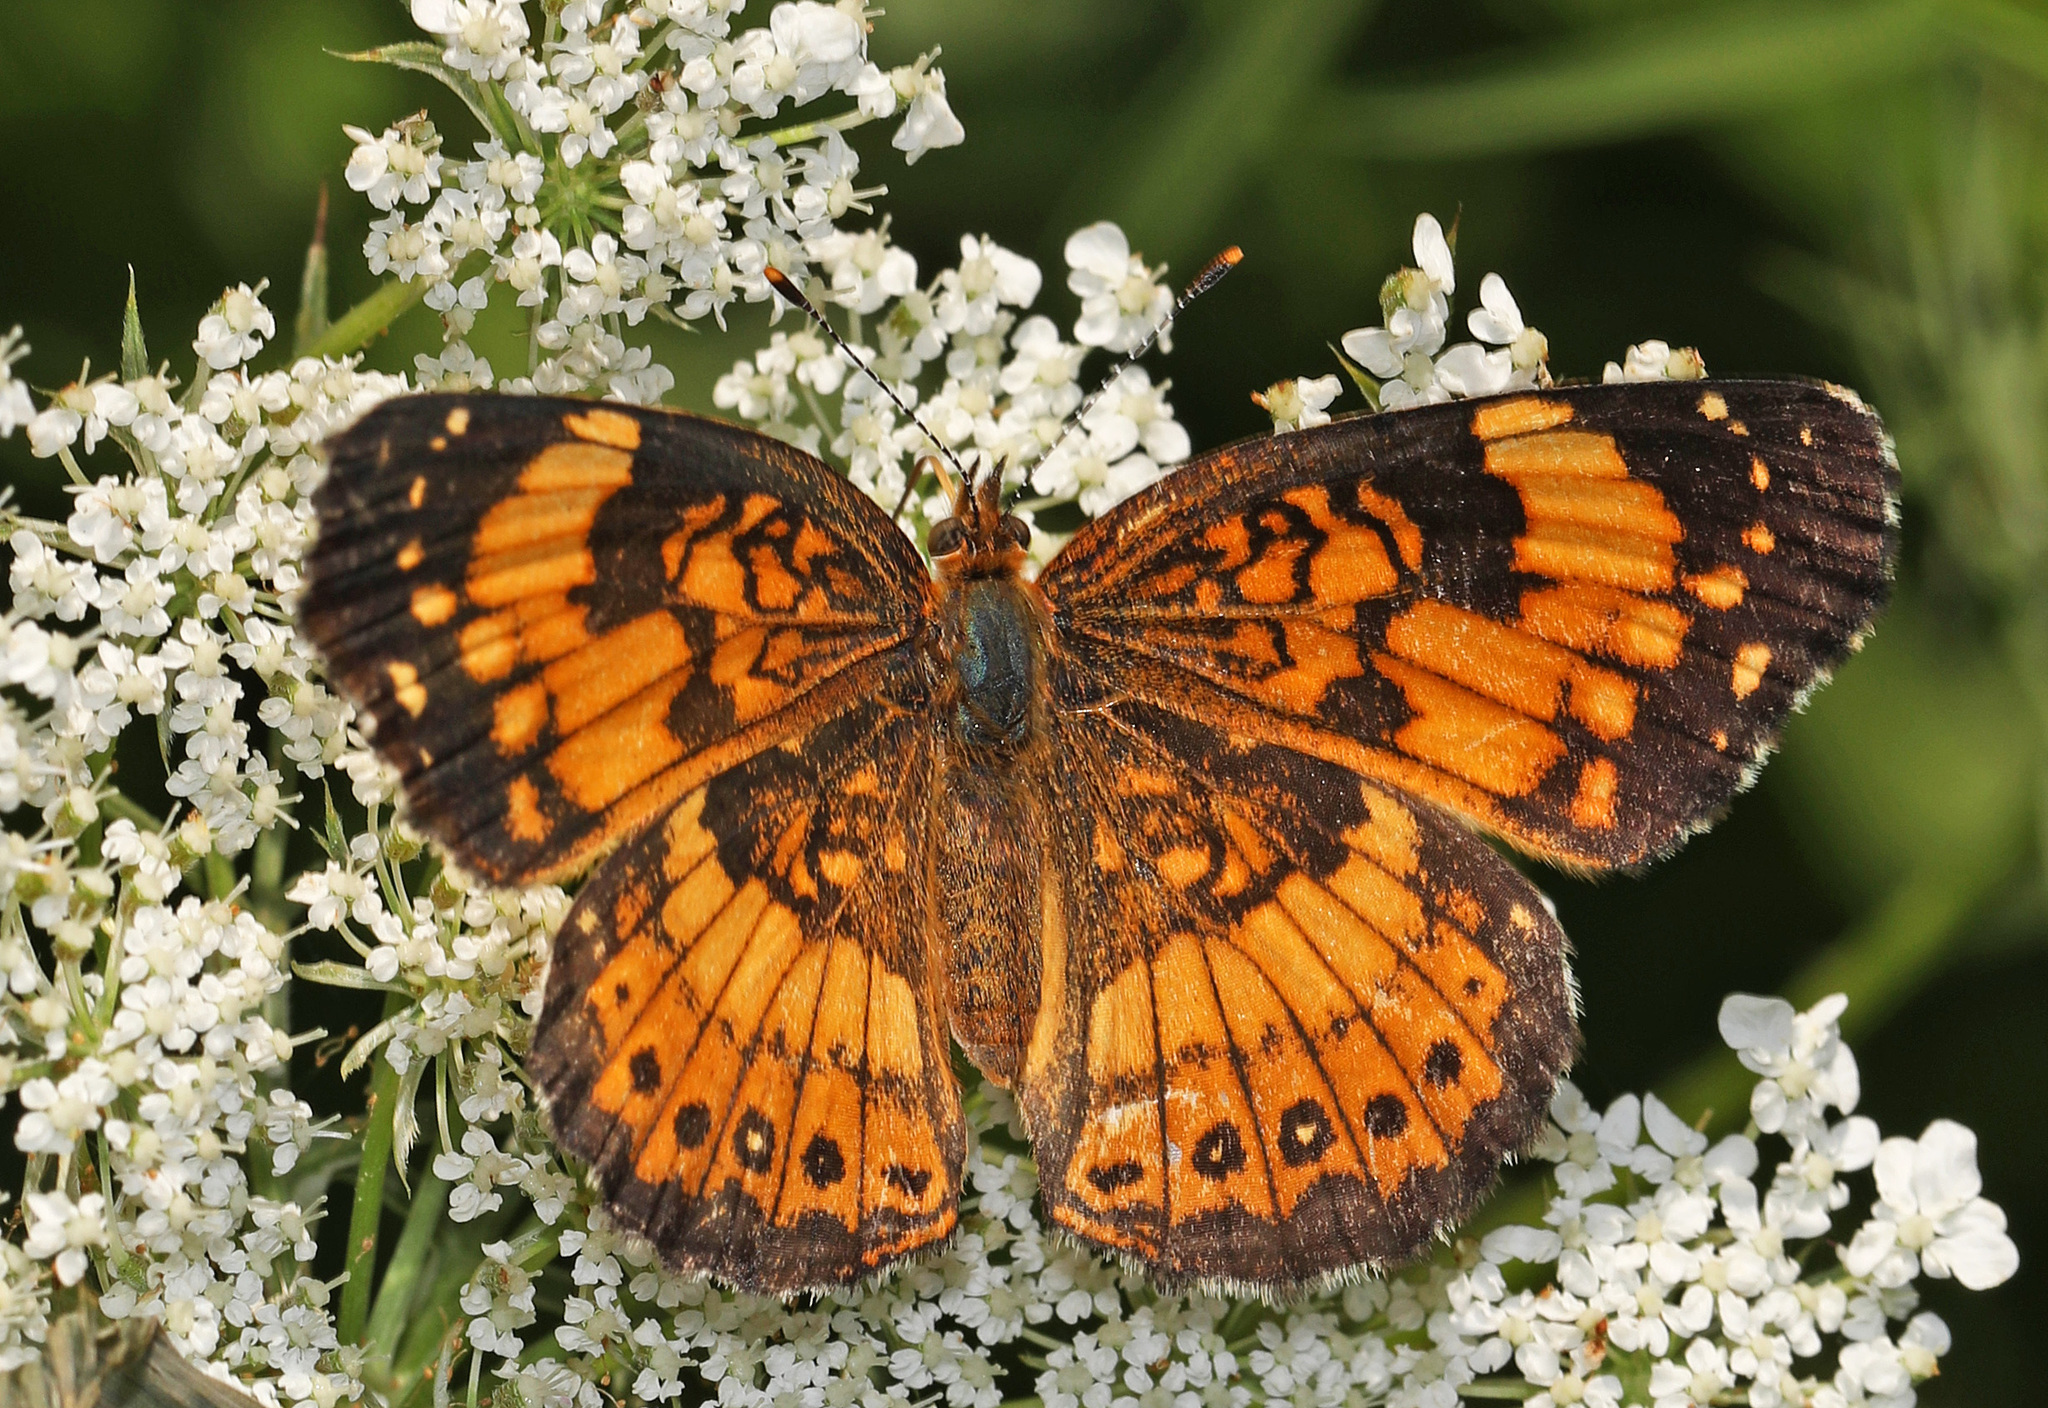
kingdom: Animalia
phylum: Arthropoda
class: Insecta
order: Lepidoptera
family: Nymphalidae
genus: Chlosyne
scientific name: Chlosyne nycteis
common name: Silvery checkerspot
